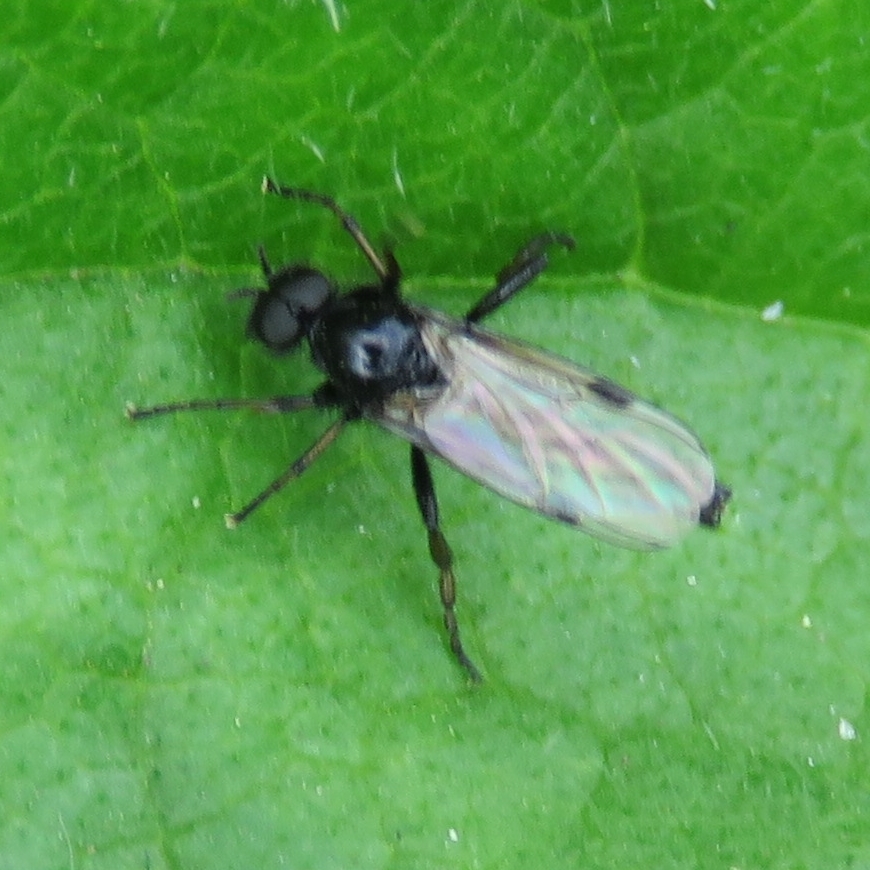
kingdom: Animalia
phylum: Arthropoda
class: Insecta
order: Diptera
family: Bibionidae
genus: Bibio
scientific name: Bibio johannis
